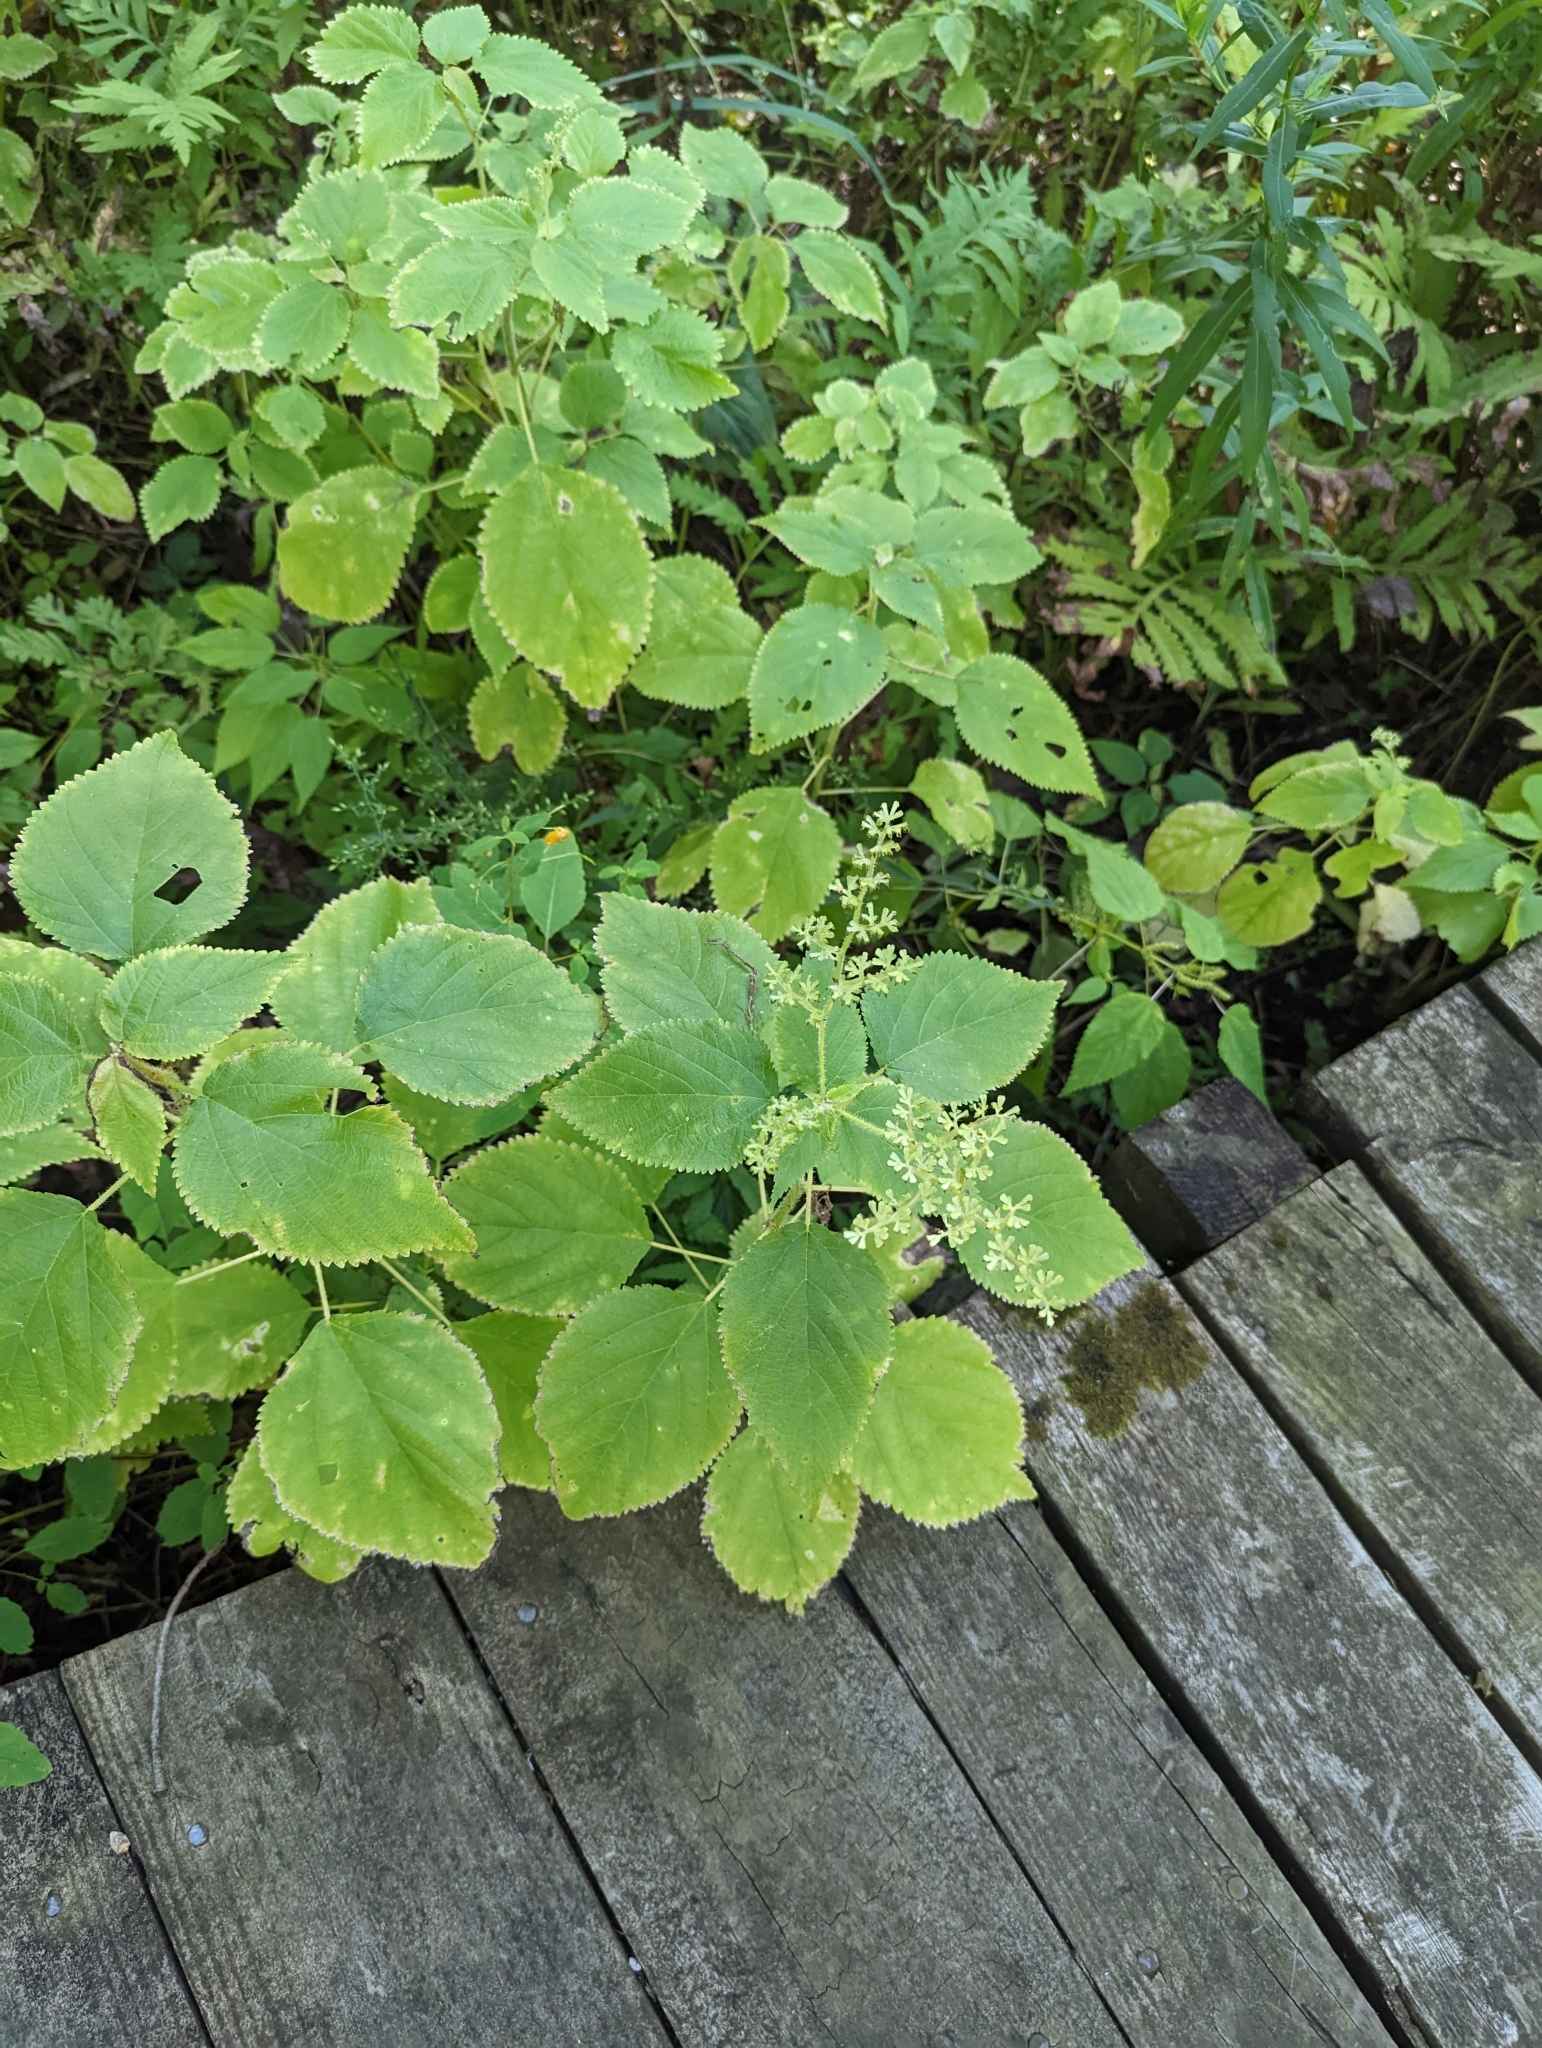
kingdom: Plantae
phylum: Tracheophyta
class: Magnoliopsida
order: Rosales
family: Urticaceae
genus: Laportea
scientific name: Laportea canadensis
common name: Canada nettle
